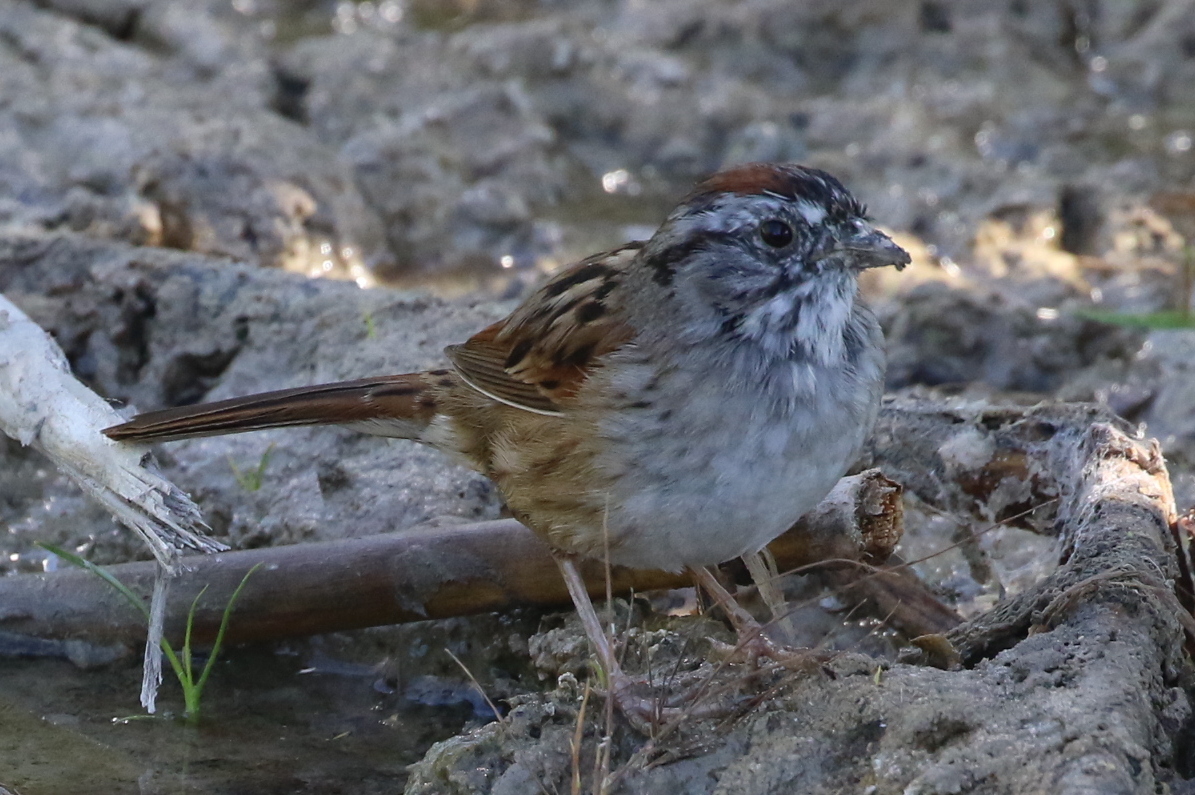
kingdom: Animalia
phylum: Chordata
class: Aves
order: Passeriformes
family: Passerellidae
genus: Melospiza
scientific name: Melospiza georgiana
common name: Swamp sparrow
